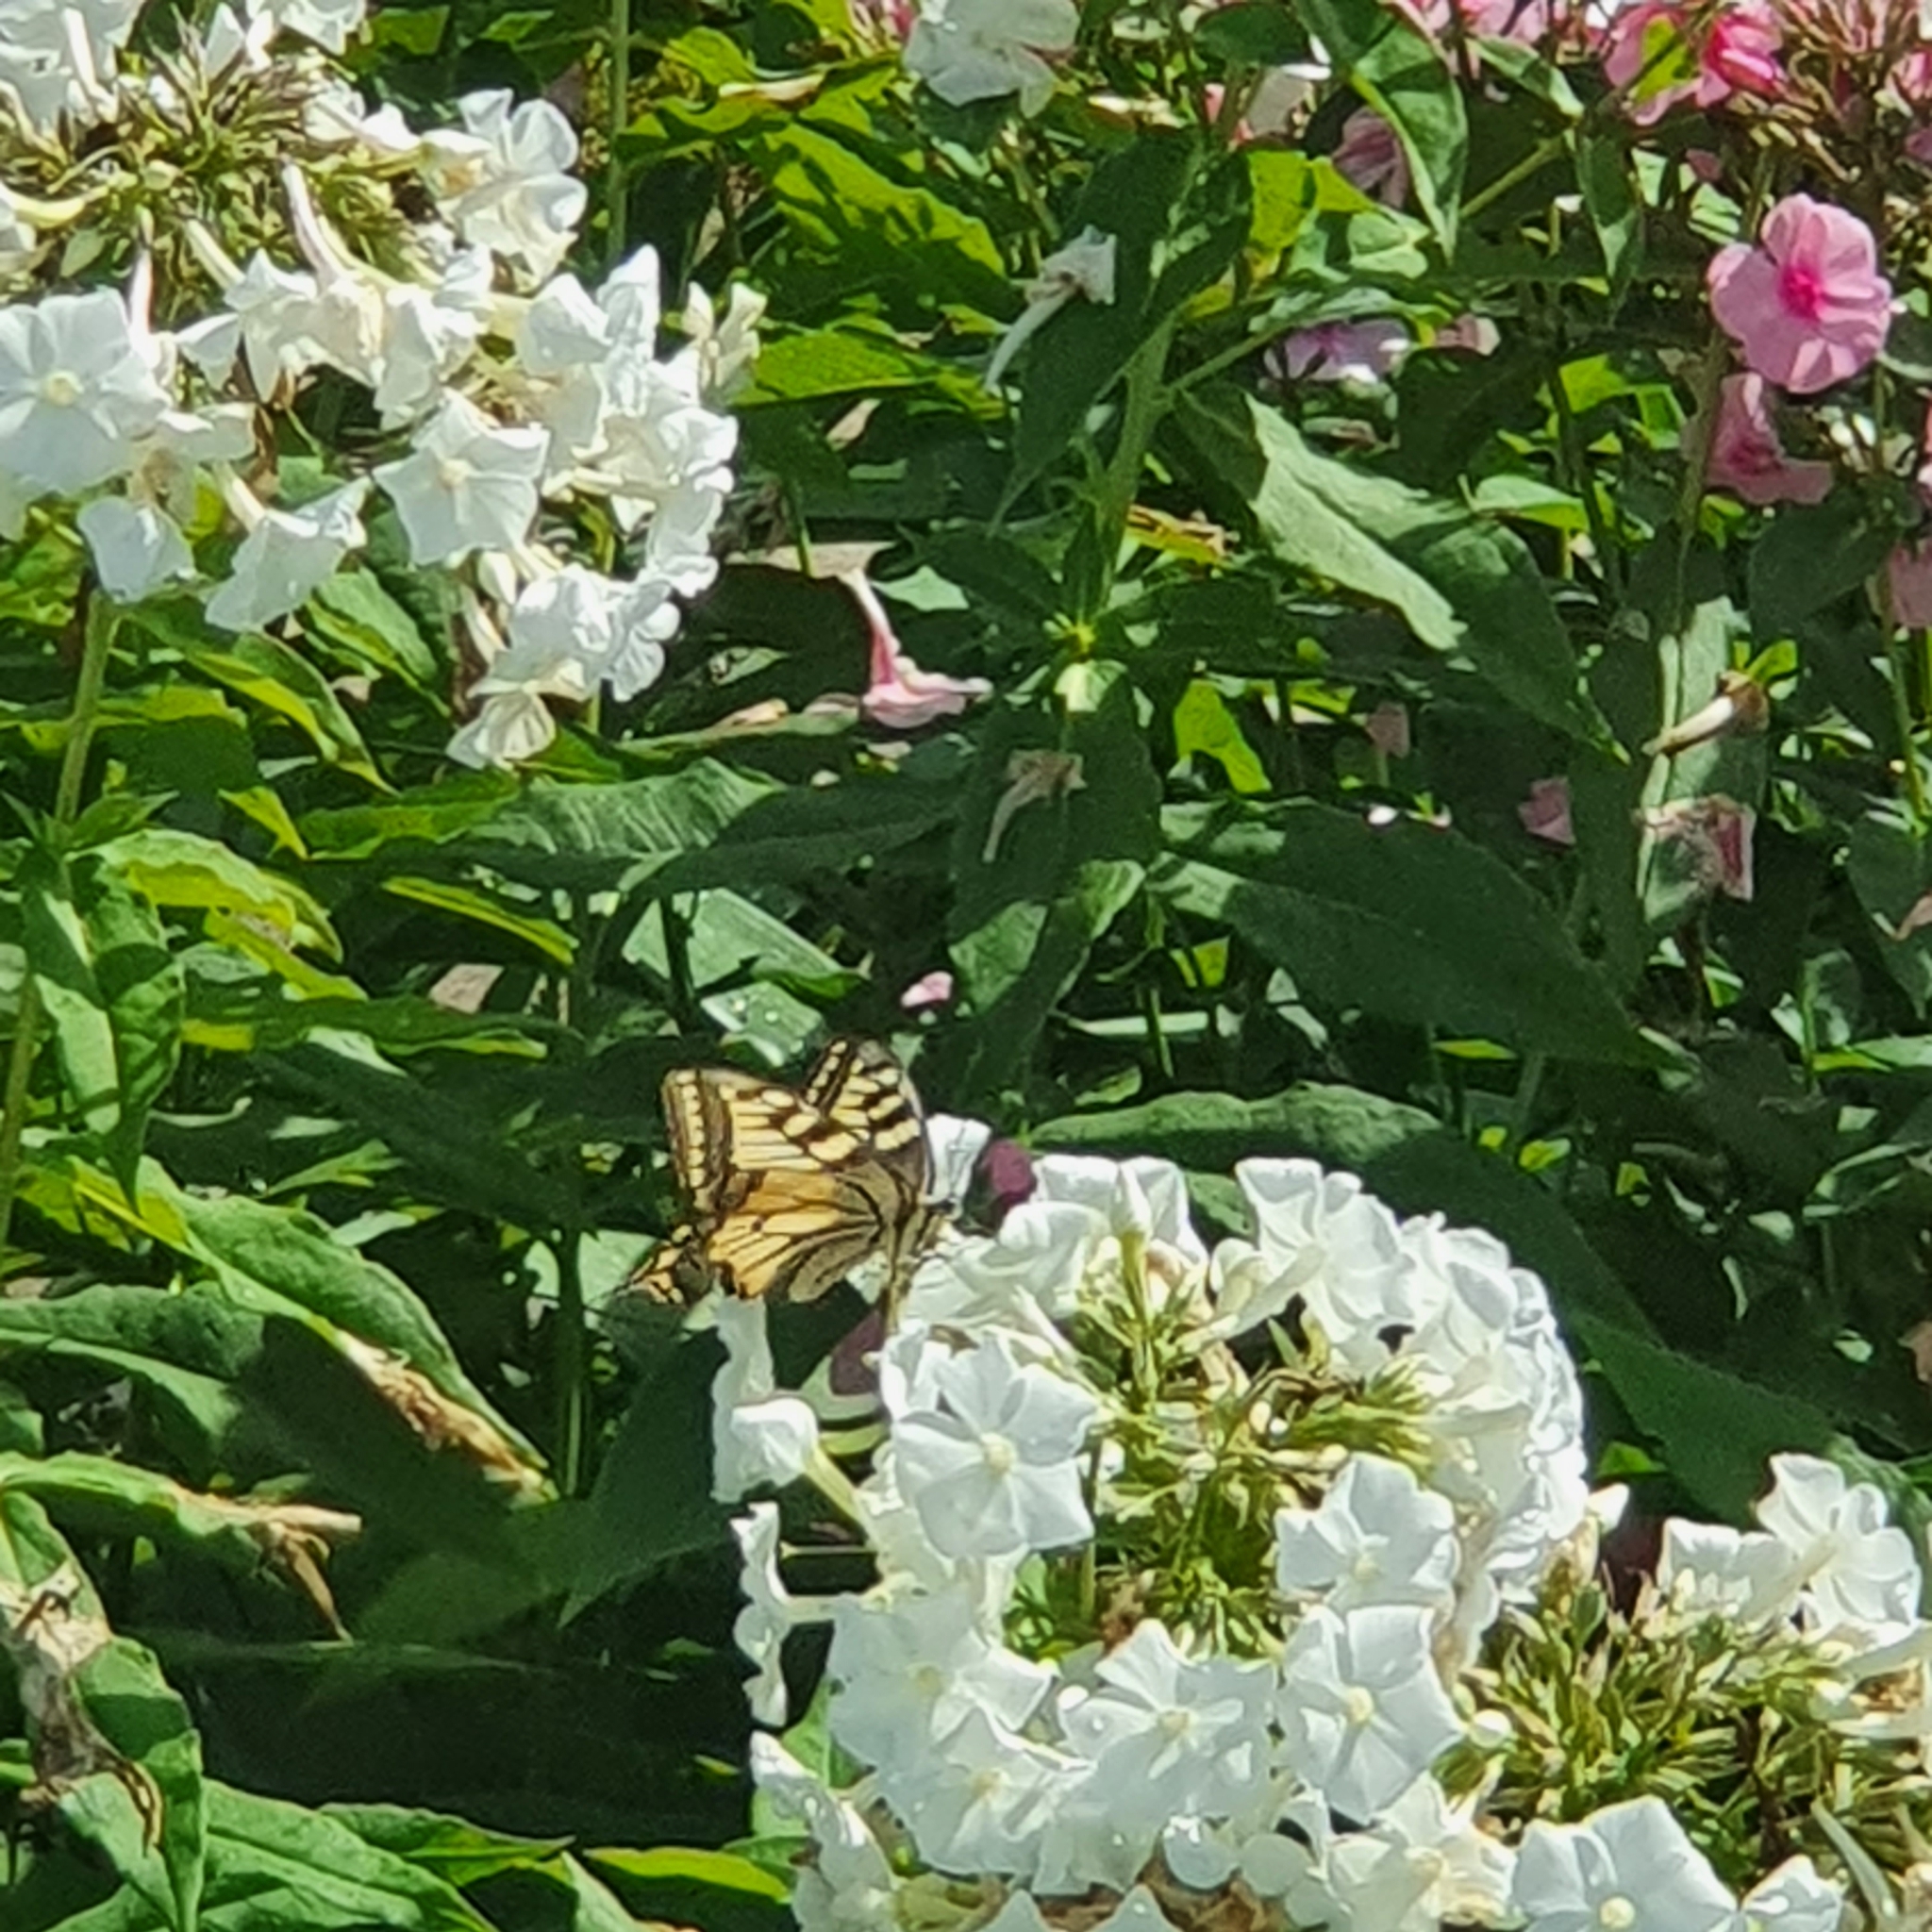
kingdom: Animalia
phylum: Arthropoda
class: Insecta
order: Lepidoptera
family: Papilionidae
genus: Papilio
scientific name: Papilio machaon
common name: Swallowtail
